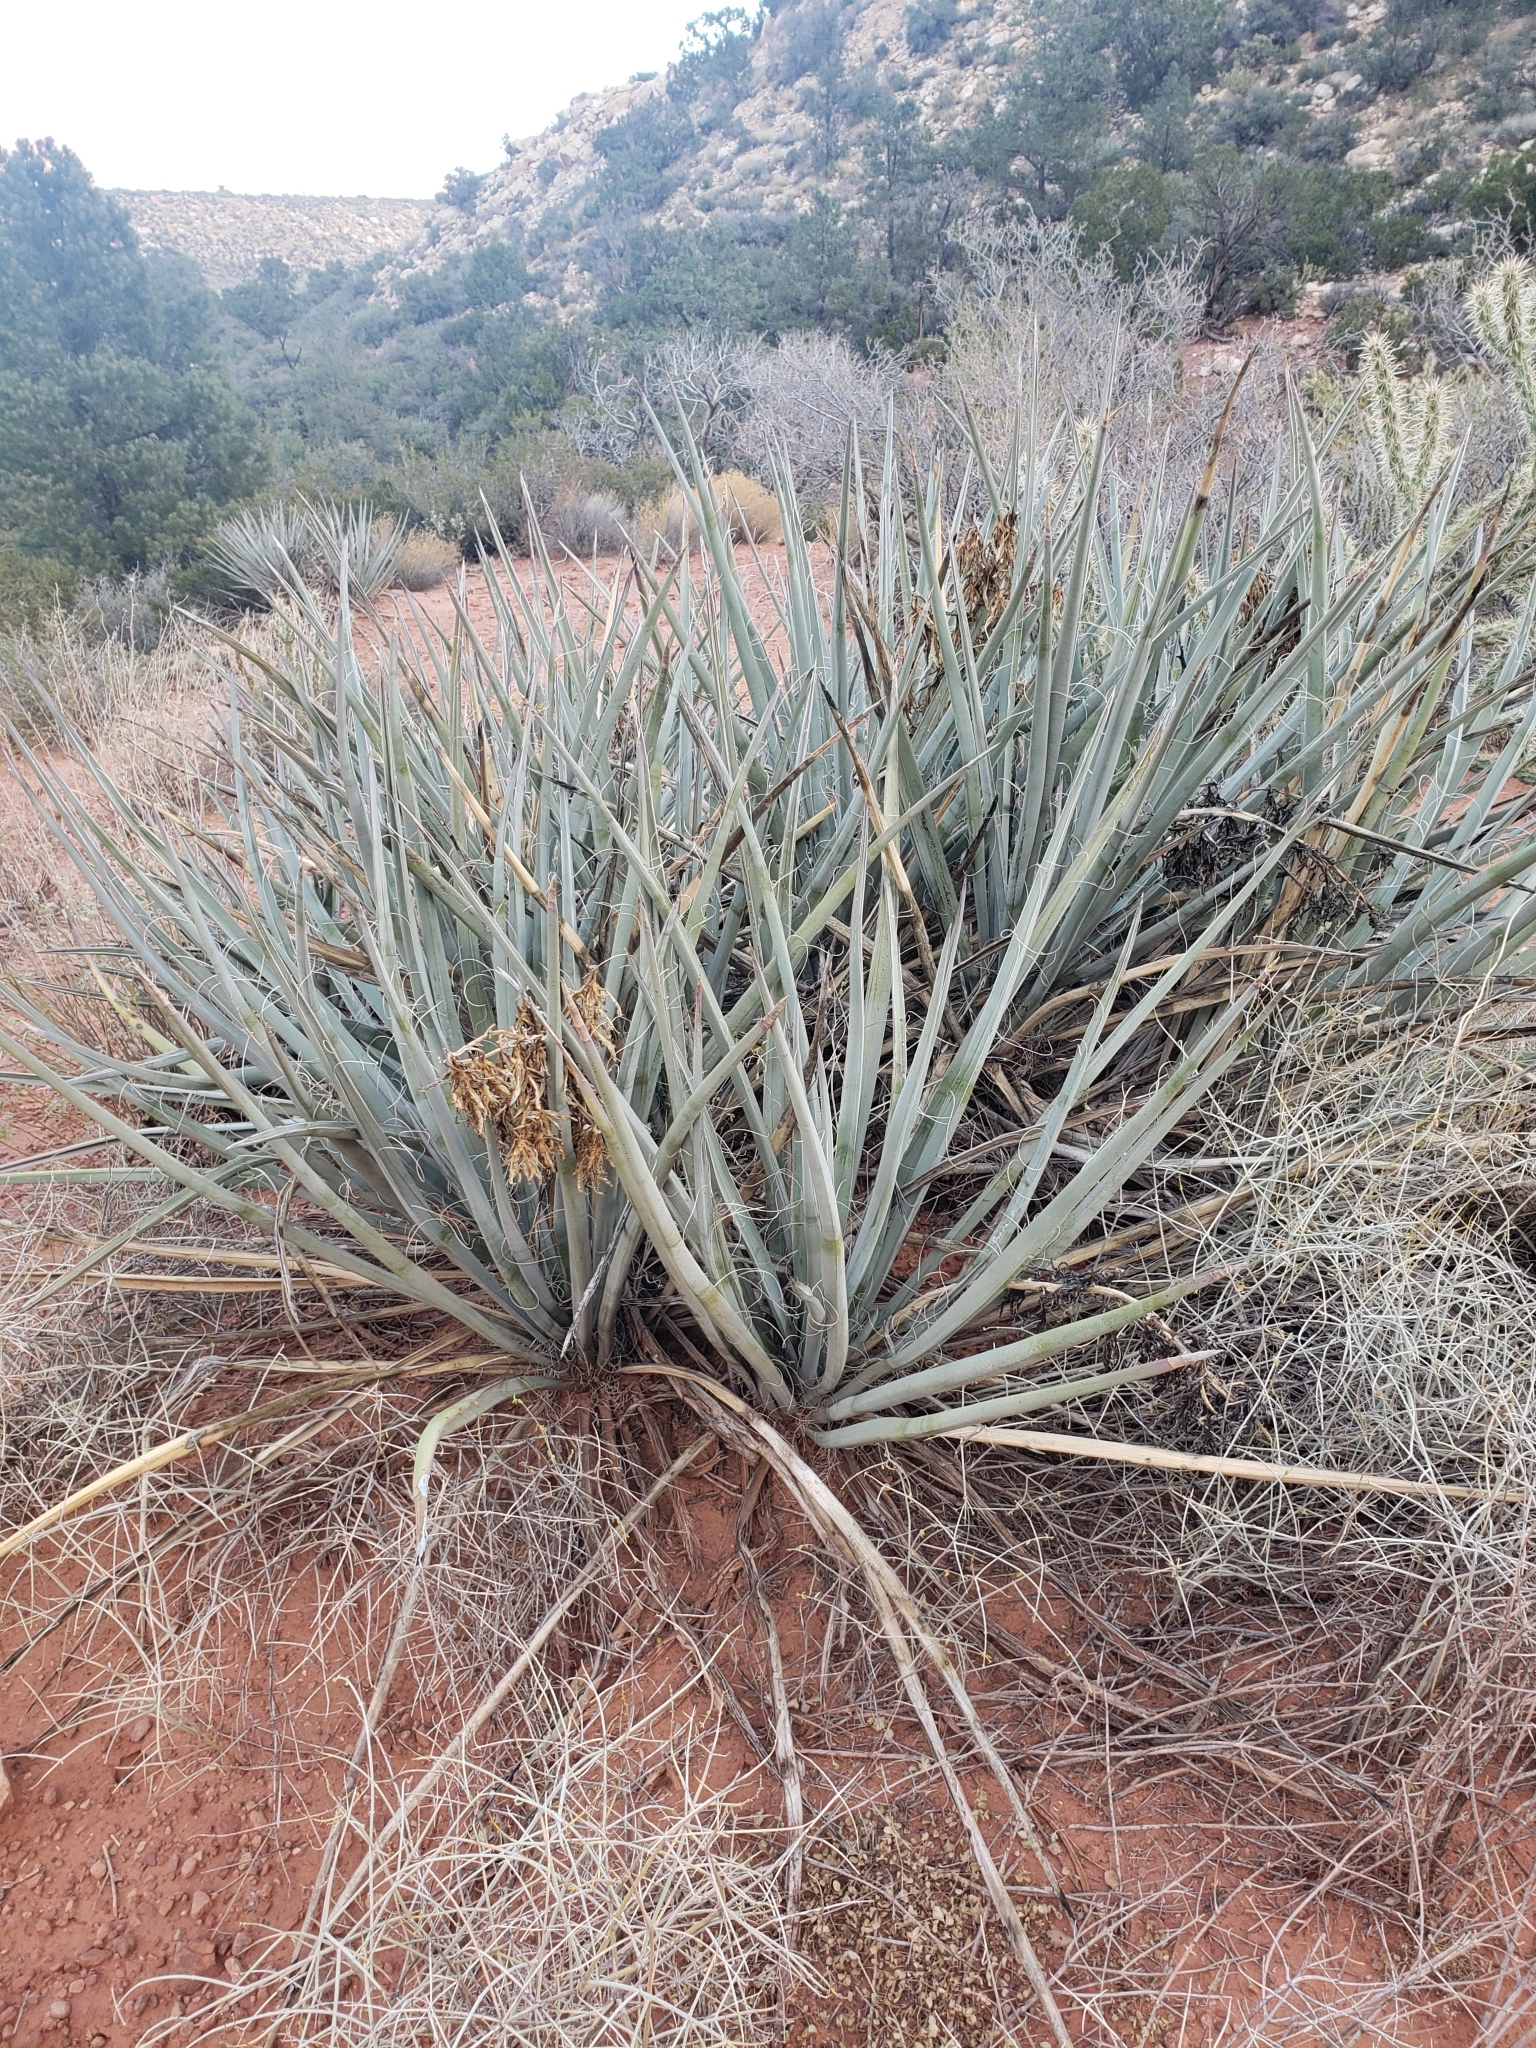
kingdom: Plantae
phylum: Tracheophyta
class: Liliopsida
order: Asparagales
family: Asparagaceae
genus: Yucca
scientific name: Yucca baccata
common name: Banana yucca
